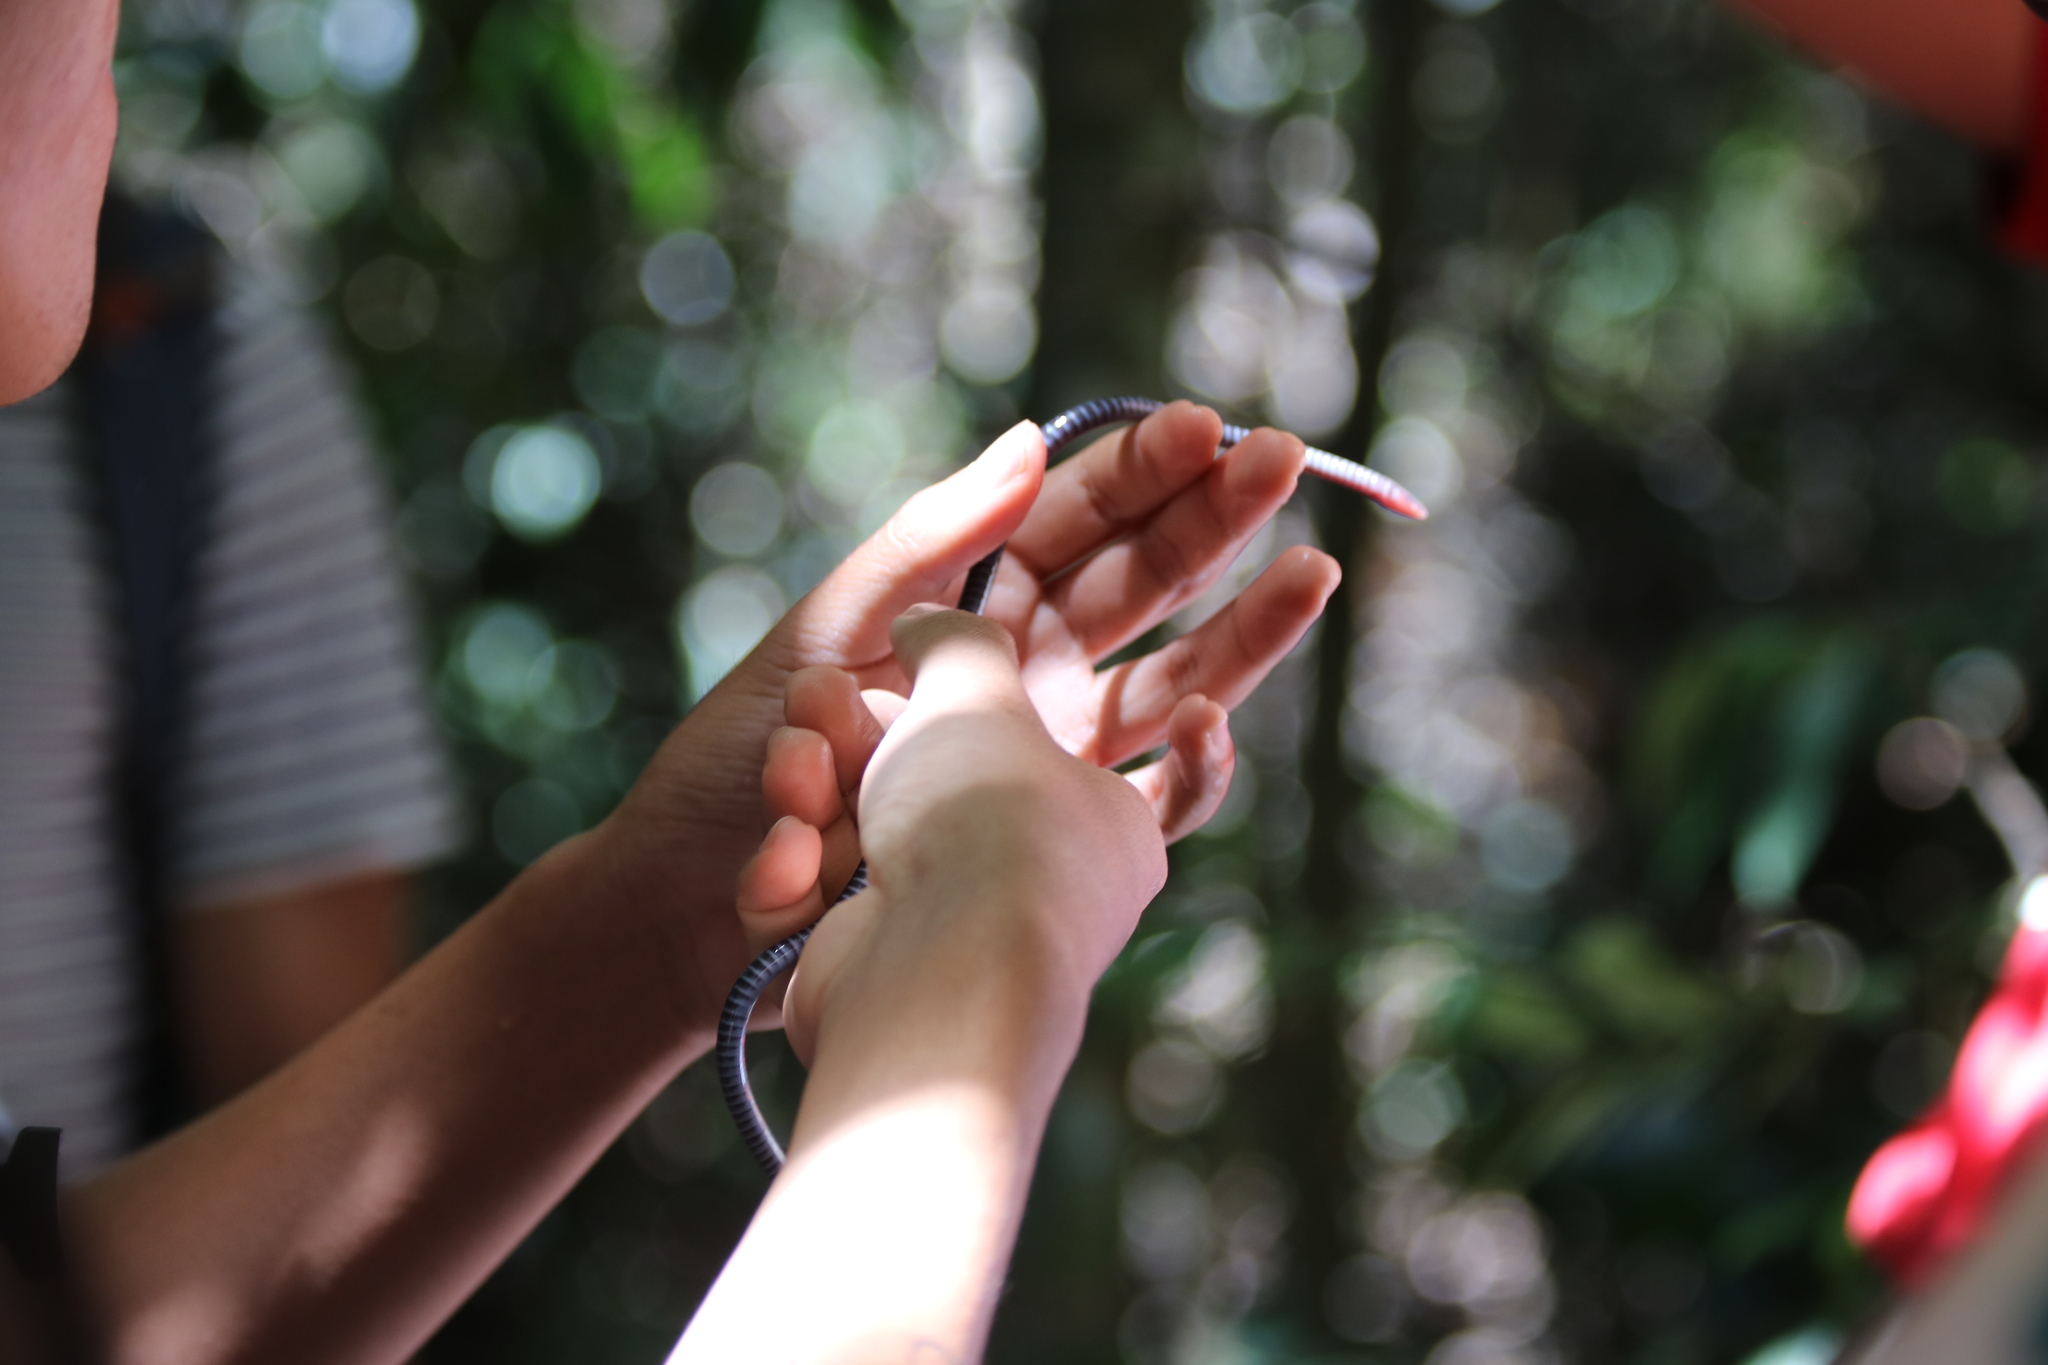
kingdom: Animalia
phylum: Chordata
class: Amphibia
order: Gymnophiona
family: Herpelidae
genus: Boulengerula
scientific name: Boulengerula taitana
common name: Taita caecilian
